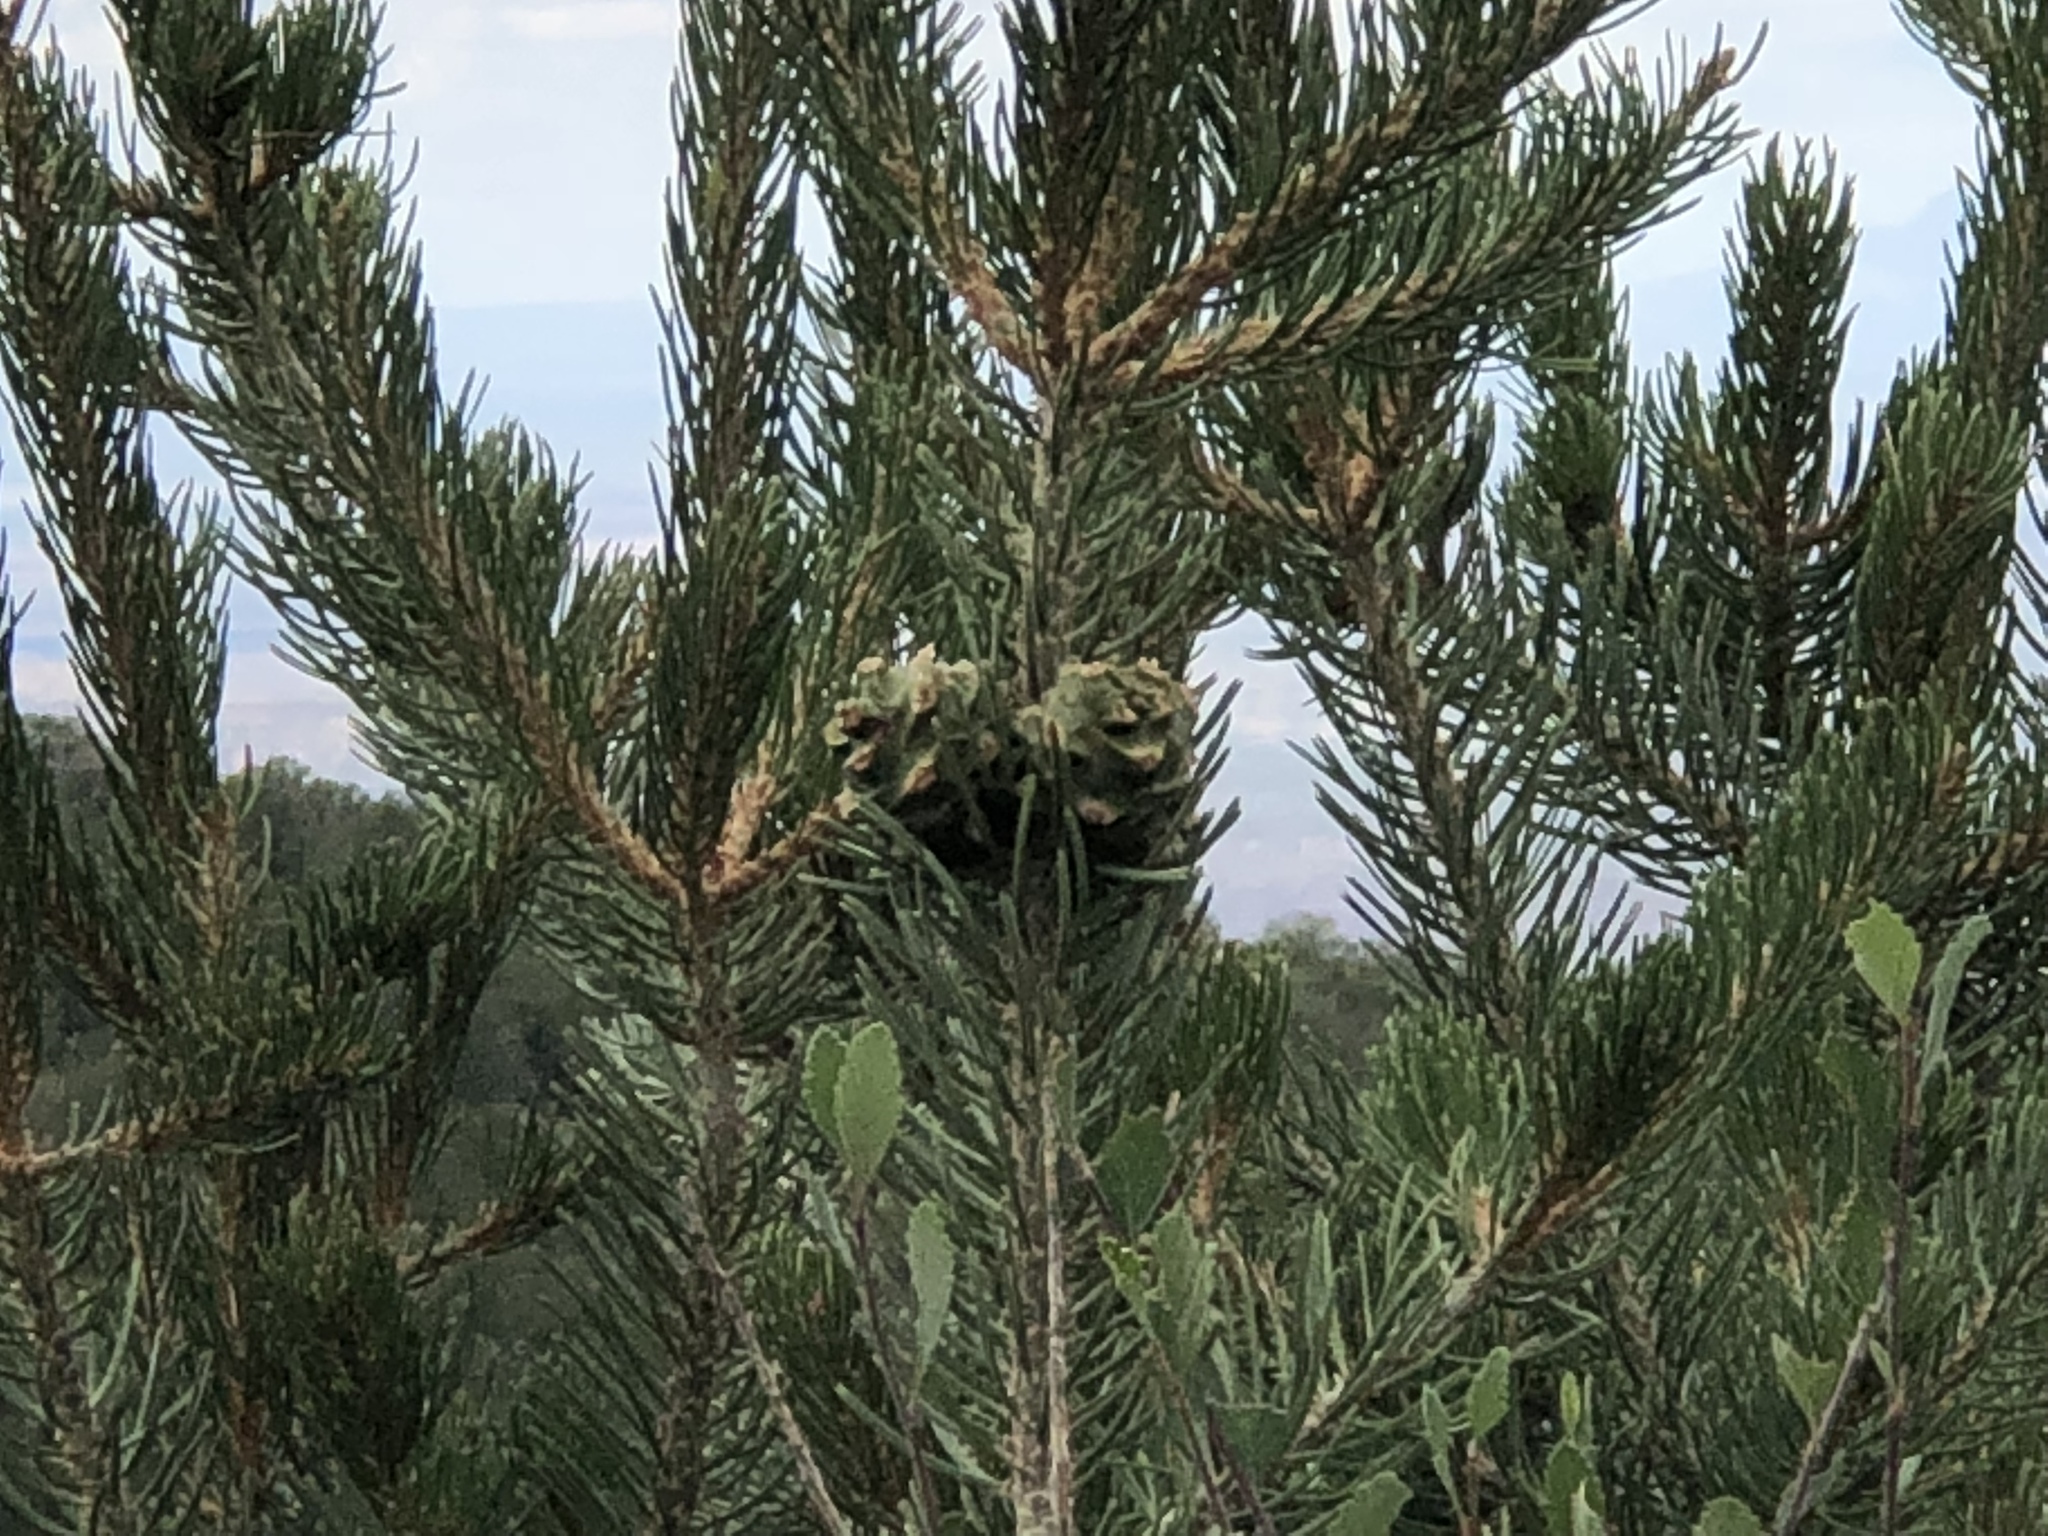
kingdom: Plantae
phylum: Tracheophyta
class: Pinopsida
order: Pinales
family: Pinaceae
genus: Pinus
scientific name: Pinus edulis
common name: Colorado pinyon
